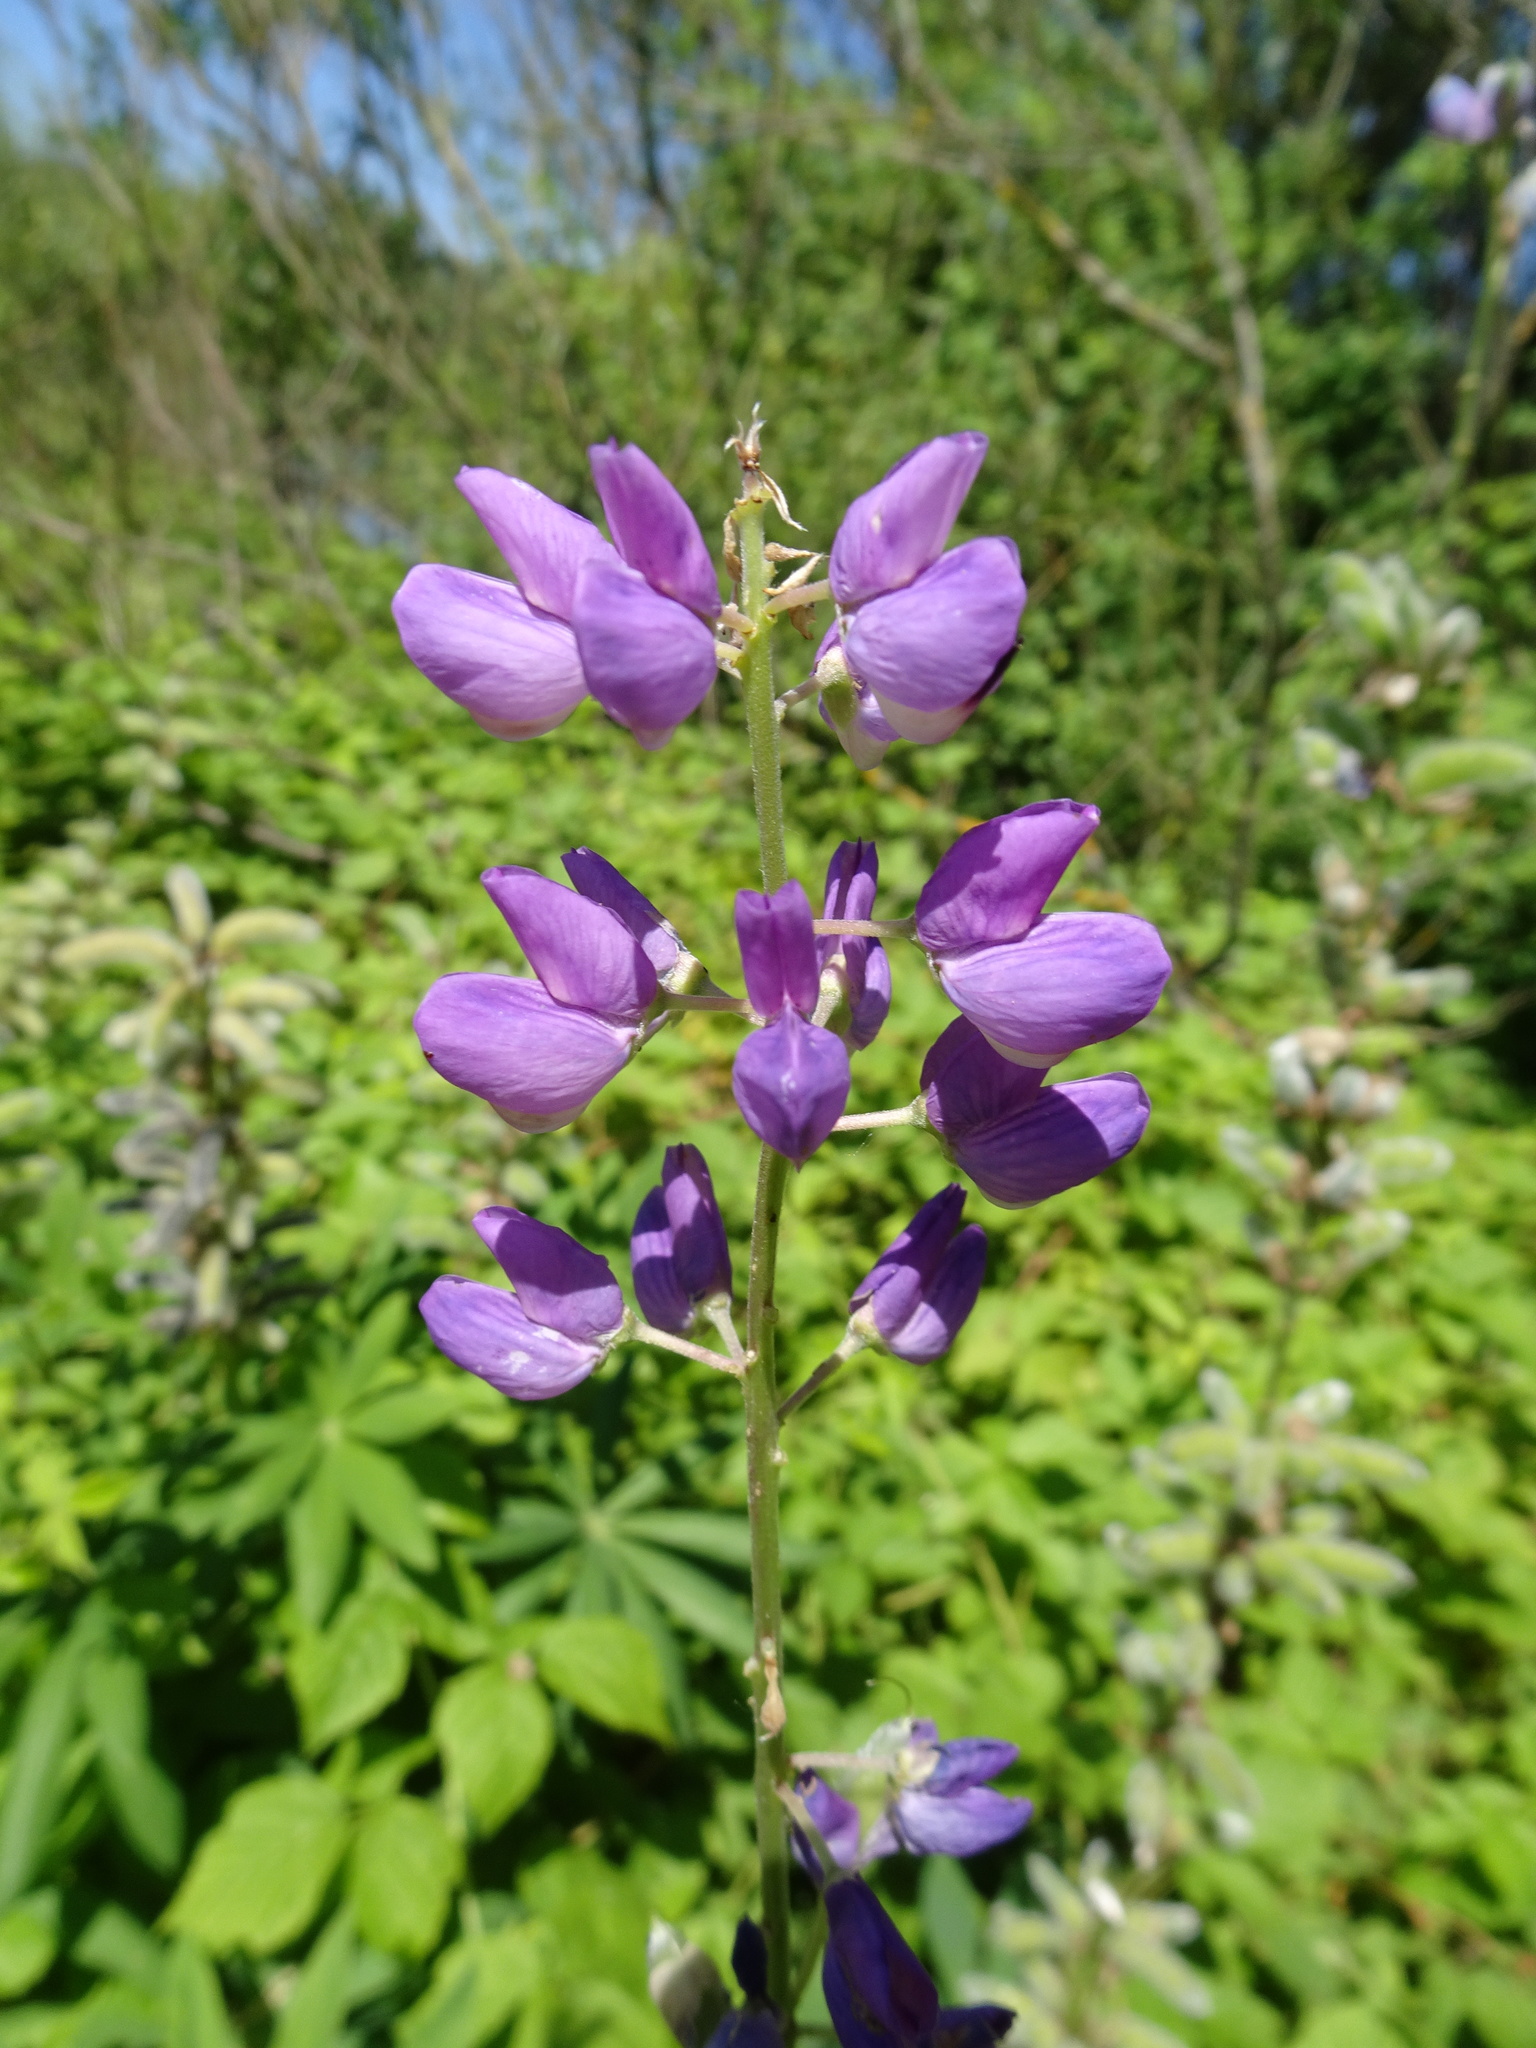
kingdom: Plantae
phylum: Tracheophyta
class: Magnoliopsida
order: Fabales
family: Fabaceae
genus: Lupinus
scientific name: Lupinus polyphyllus
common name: Garden lupin
